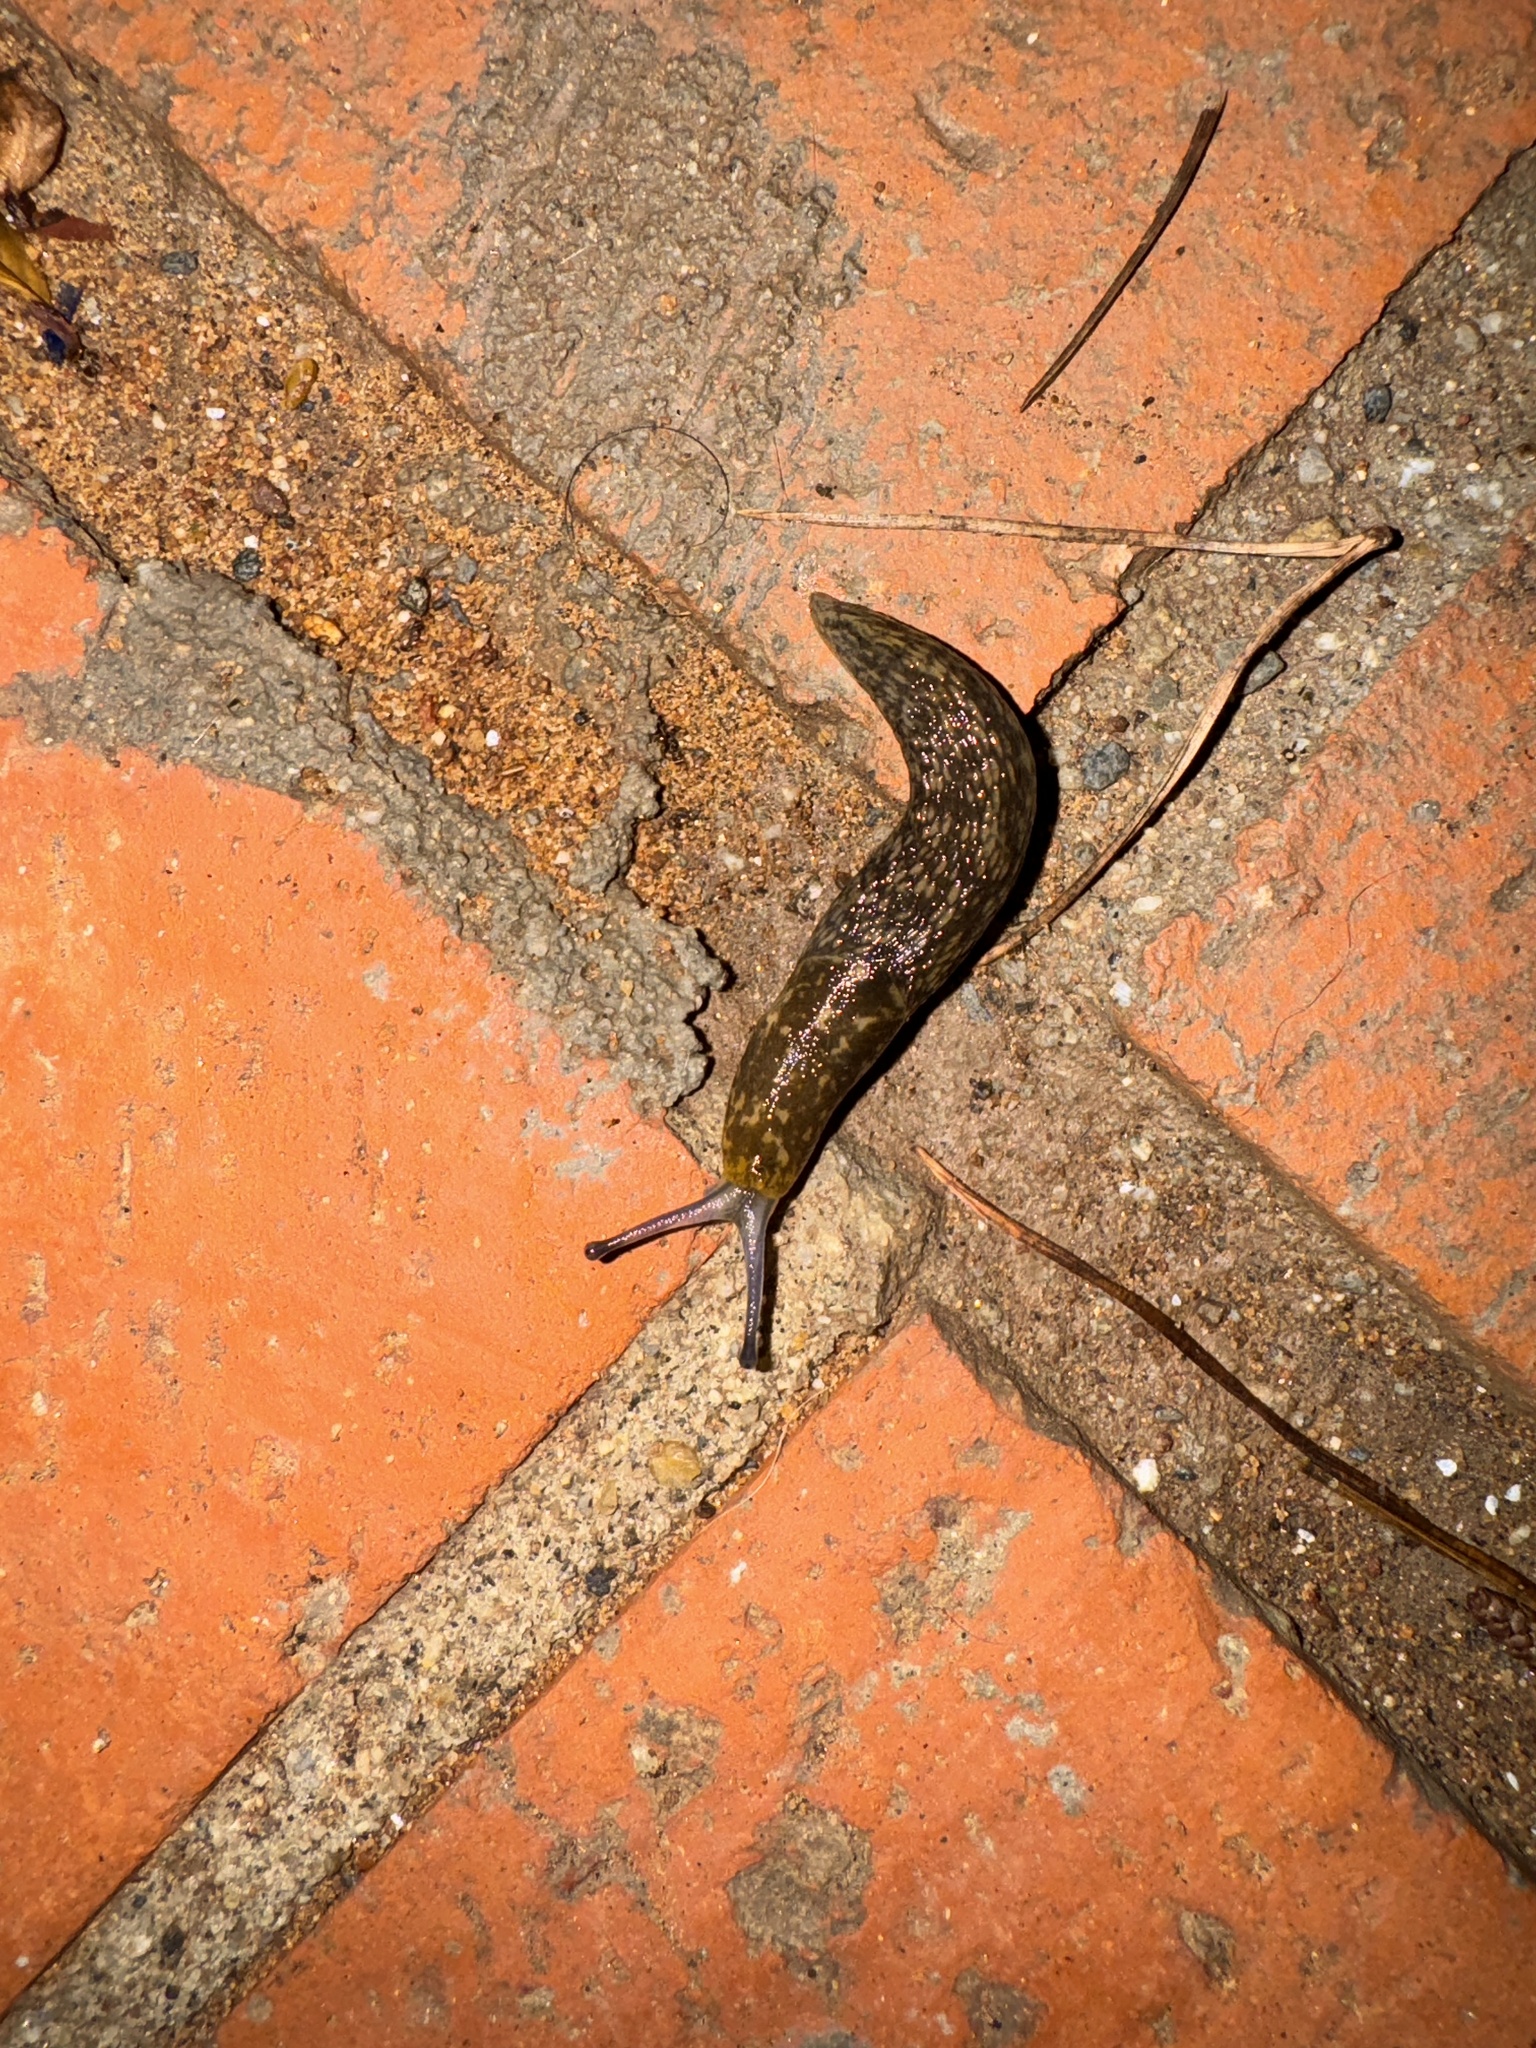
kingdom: Animalia
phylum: Mollusca
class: Gastropoda
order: Stylommatophora
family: Limacidae
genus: Limacus
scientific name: Limacus flavus
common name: Yellow gardenslug
